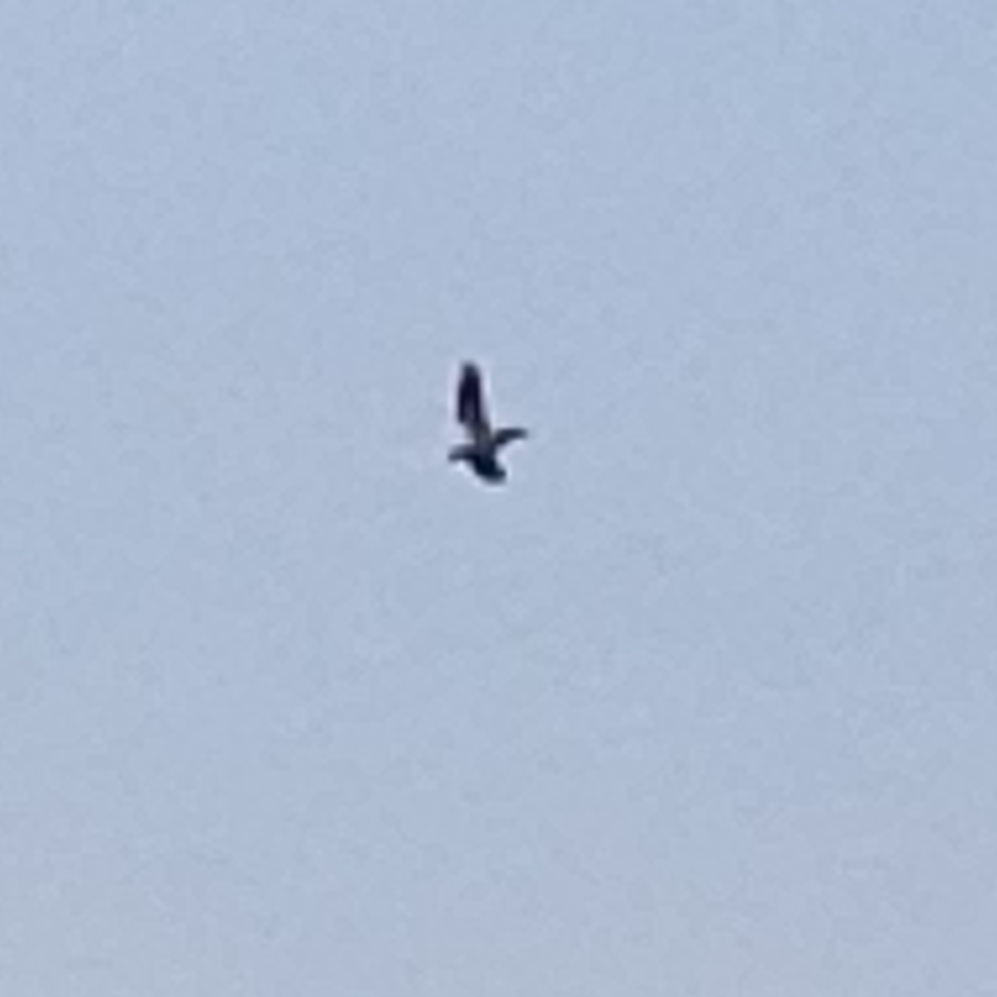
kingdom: Animalia
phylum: Chordata
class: Aves
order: Pelecaniformes
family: Pelecanidae
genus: Pelecanus
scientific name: Pelecanus erythrorhynchos
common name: American white pelican
